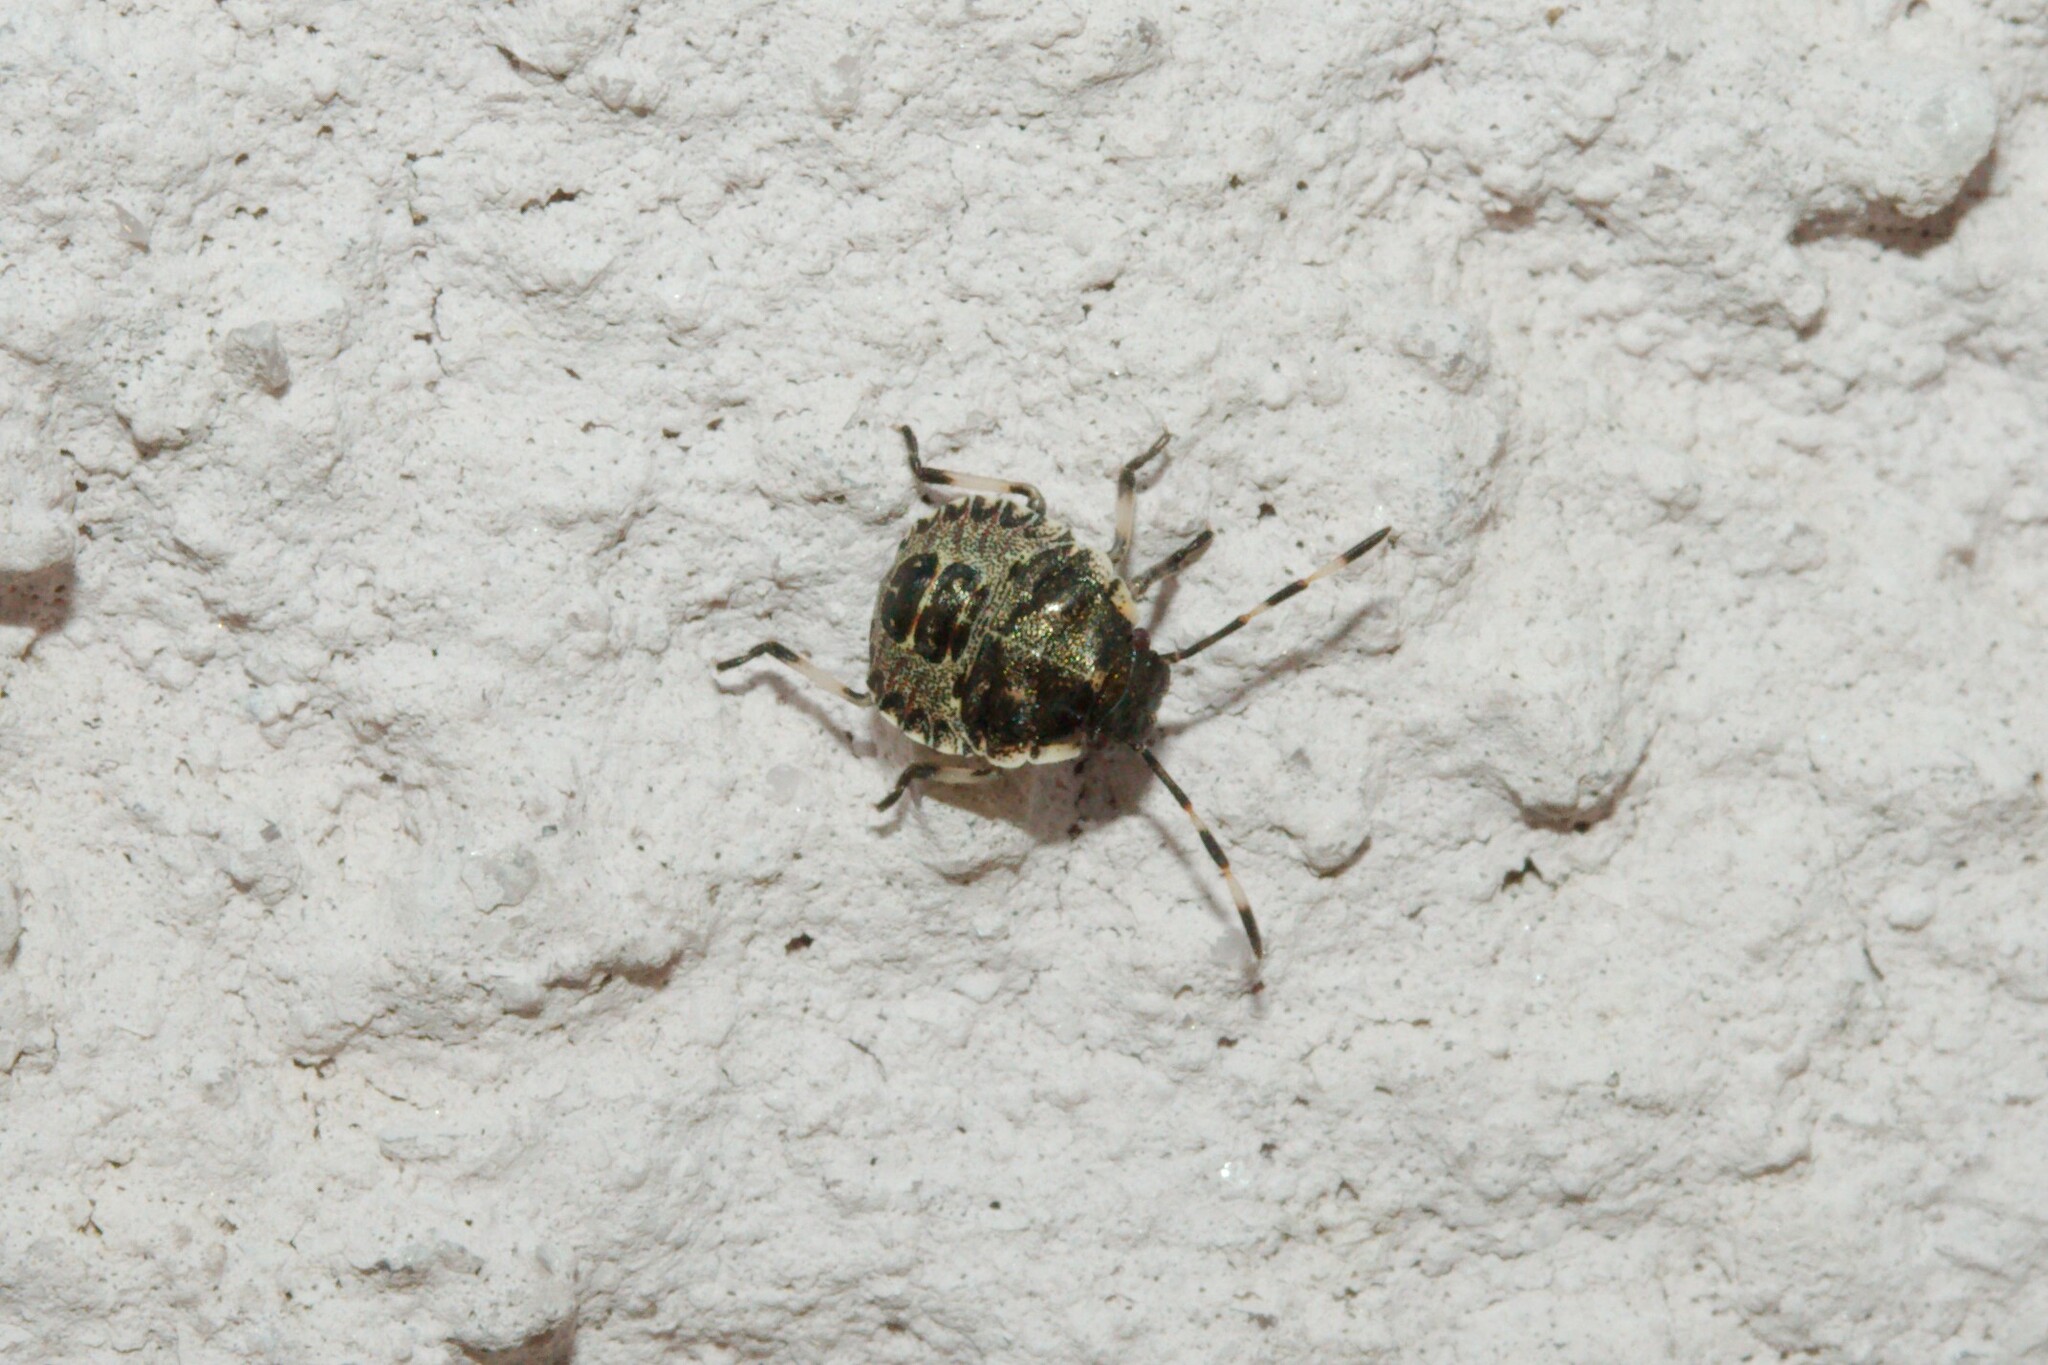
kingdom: Animalia
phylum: Arthropoda
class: Insecta
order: Hemiptera
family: Pentatomidae
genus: Rhaphigaster
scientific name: Rhaphigaster nebulosa
